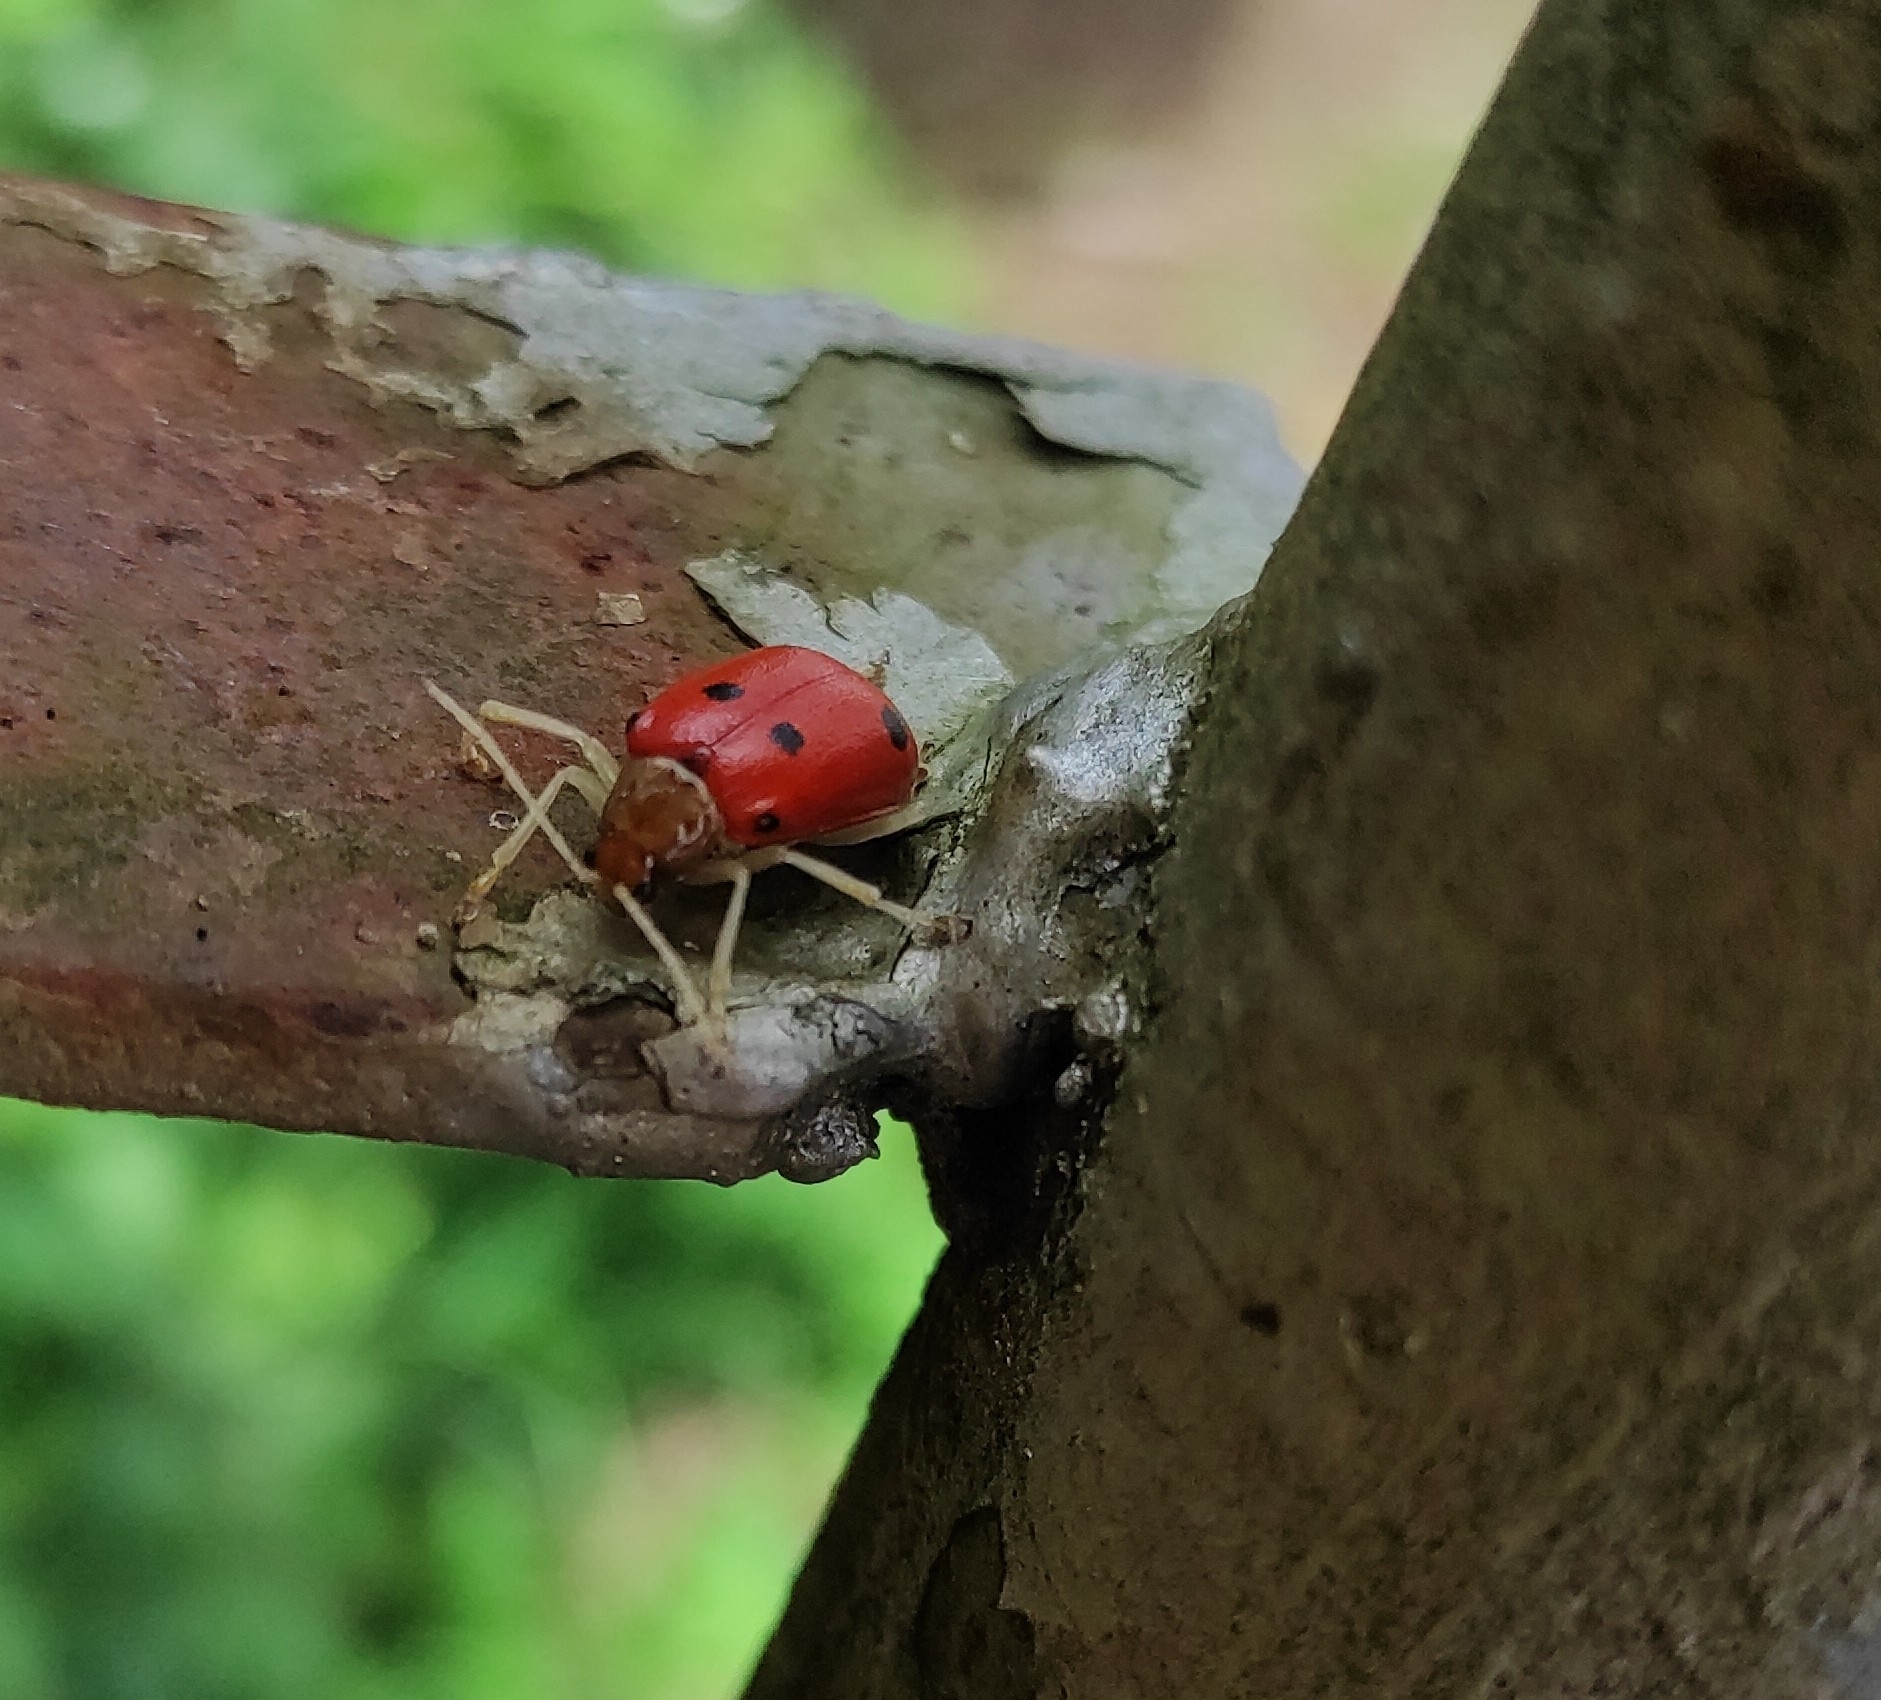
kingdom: Animalia
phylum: Arthropoda
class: Insecta
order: Coleoptera
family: Chrysomelidae
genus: Isotes
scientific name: Isotes
